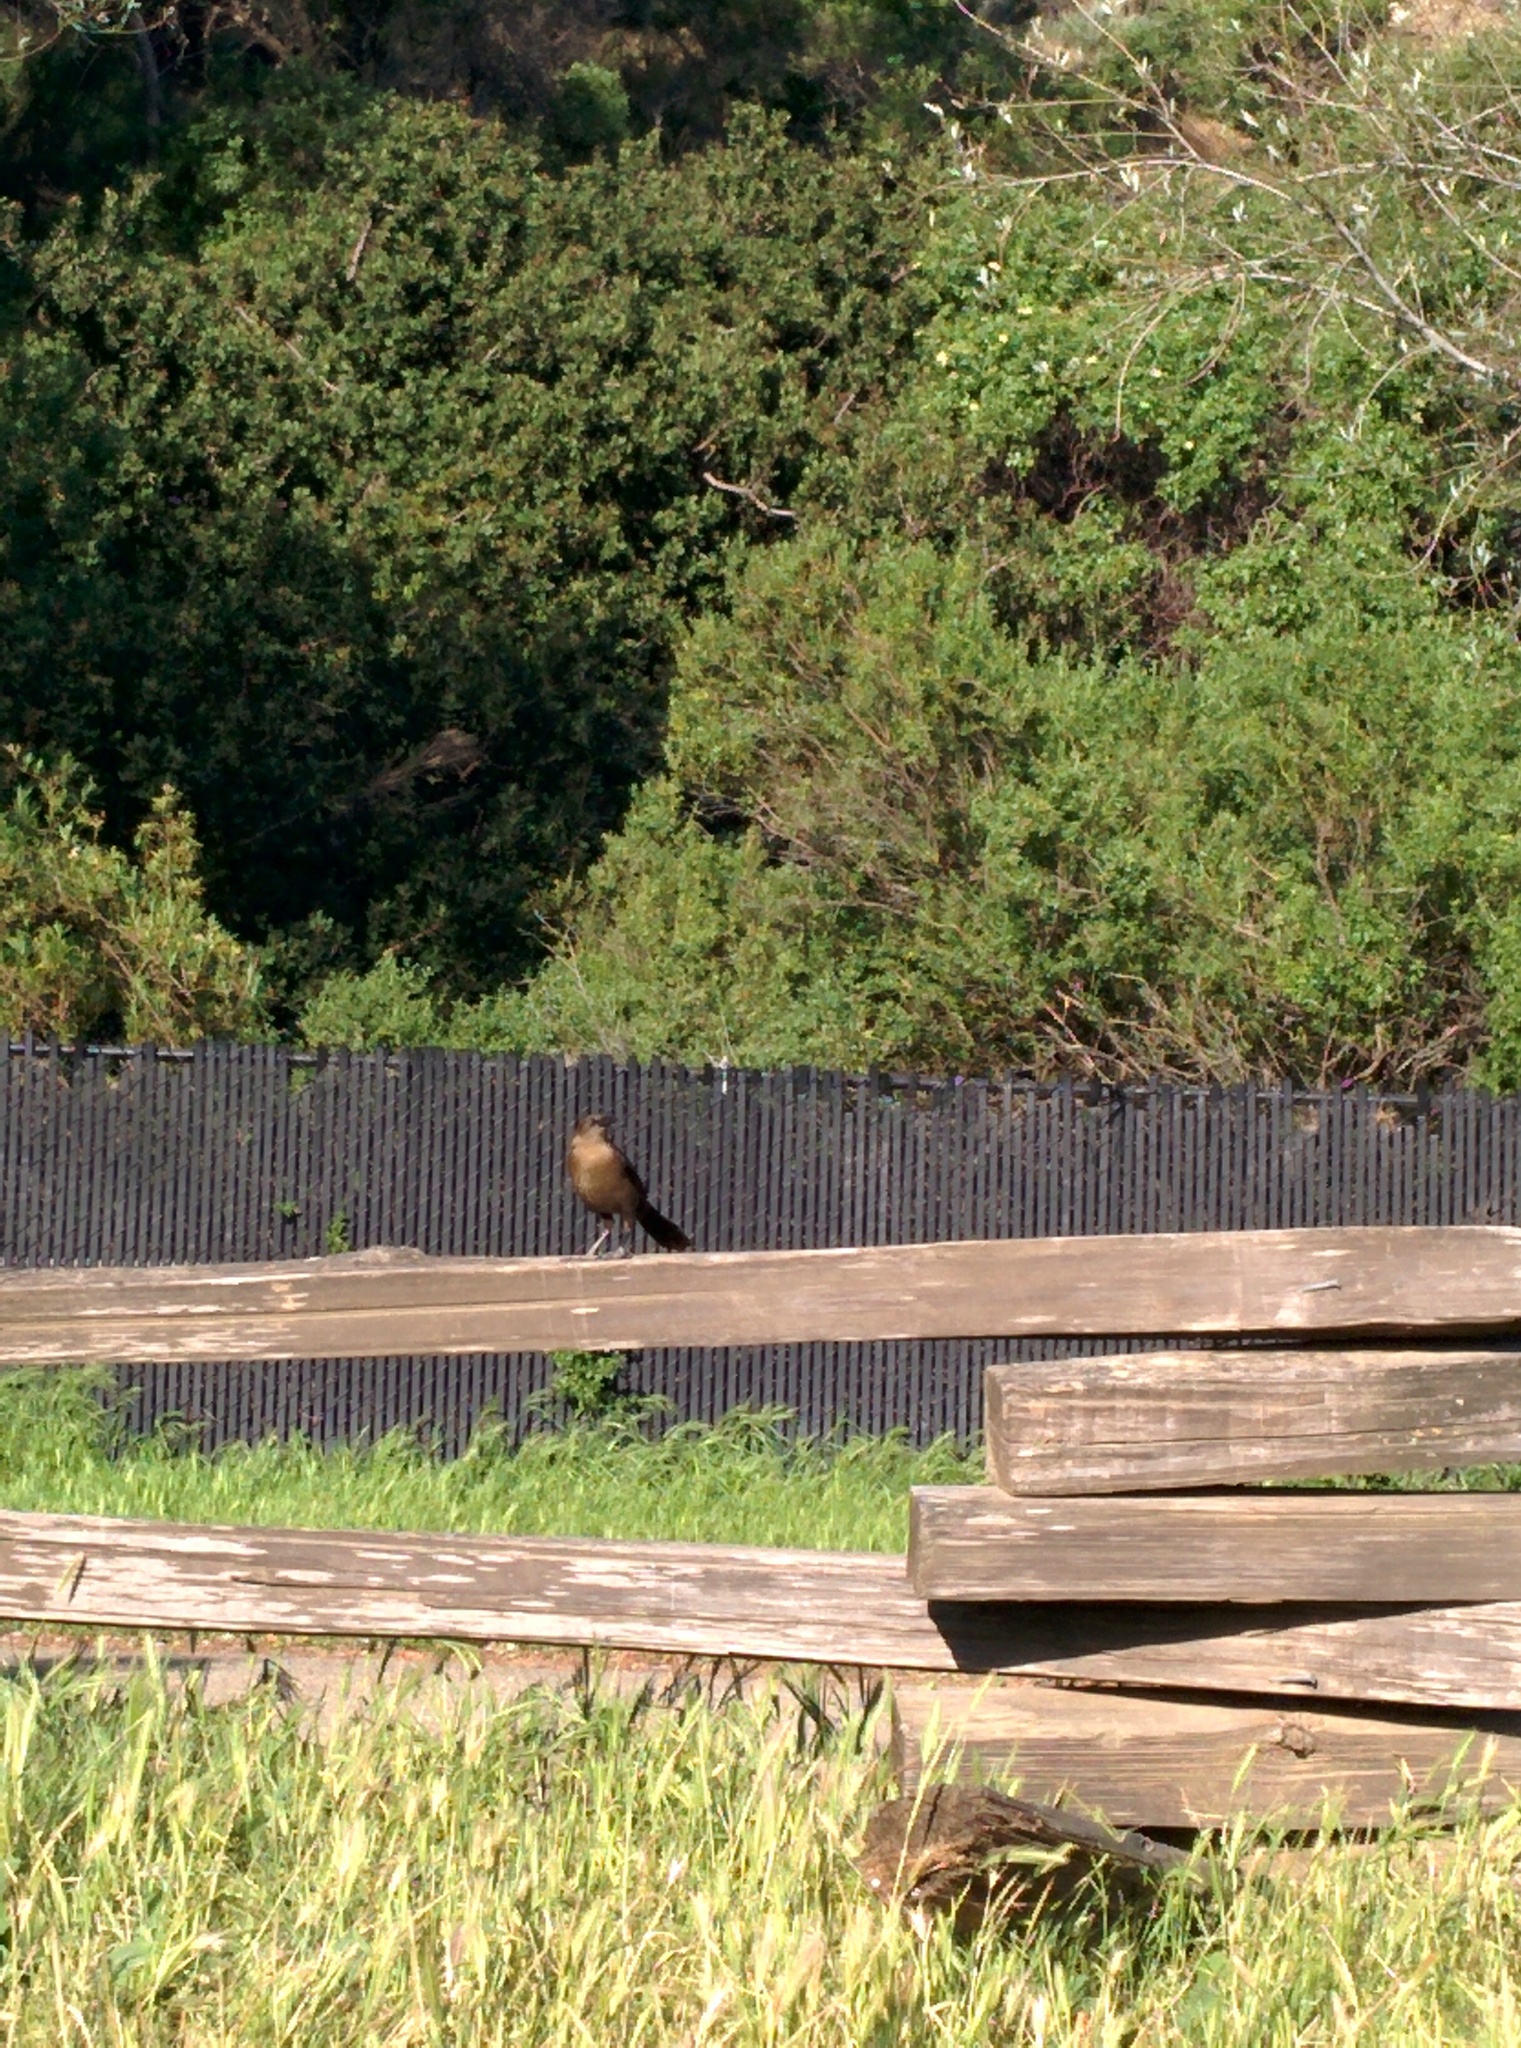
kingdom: Animalia
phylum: Chordata
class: Aves
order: Passeriformes
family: Icteridae
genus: Quiscalus
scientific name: Quiscalus mexicanus
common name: Great-tailed grackle
